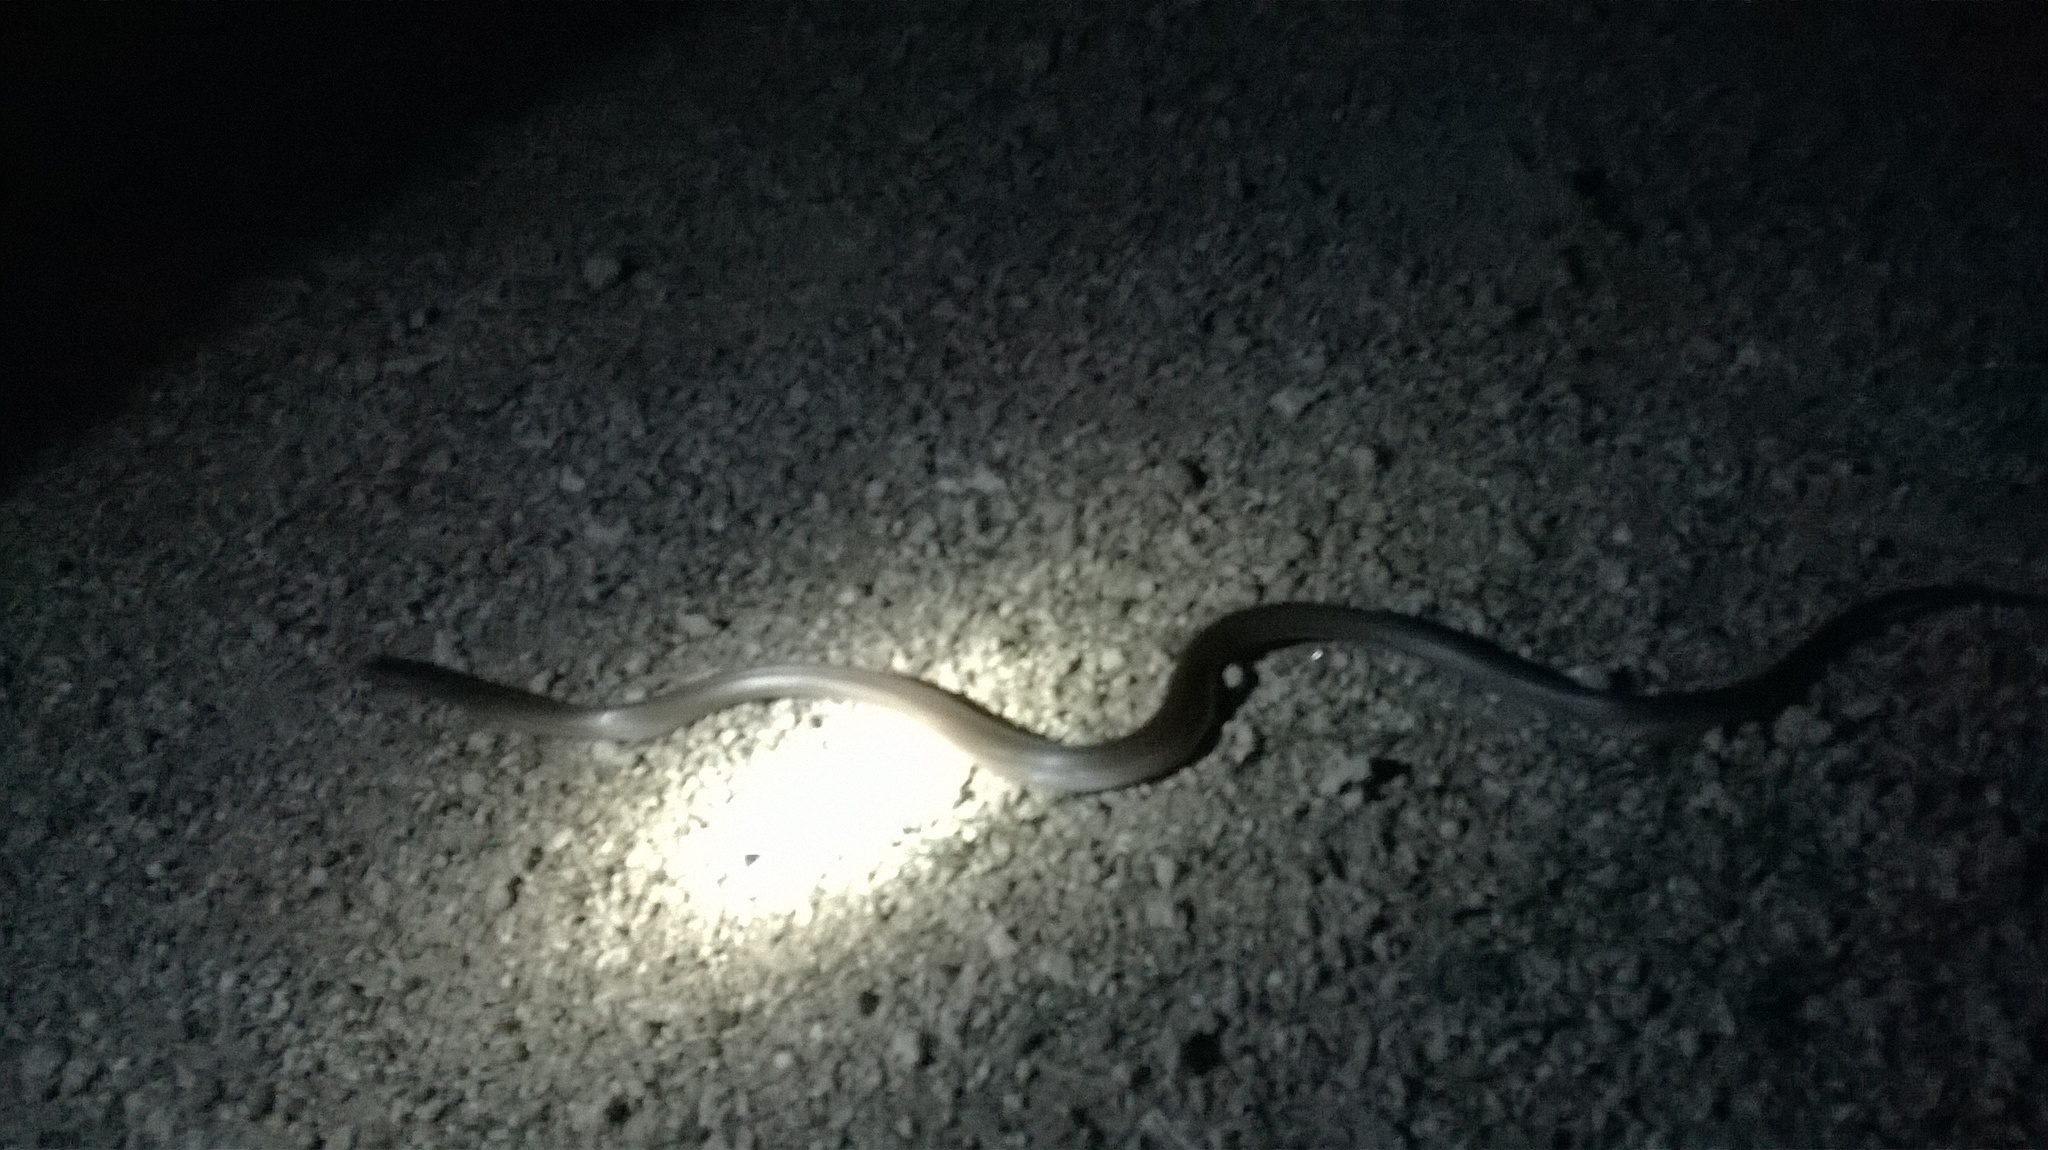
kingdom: Animalia
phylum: Chordata
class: Squamata
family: Elapidae
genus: Naja
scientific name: Naja naja
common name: Indian cobra
